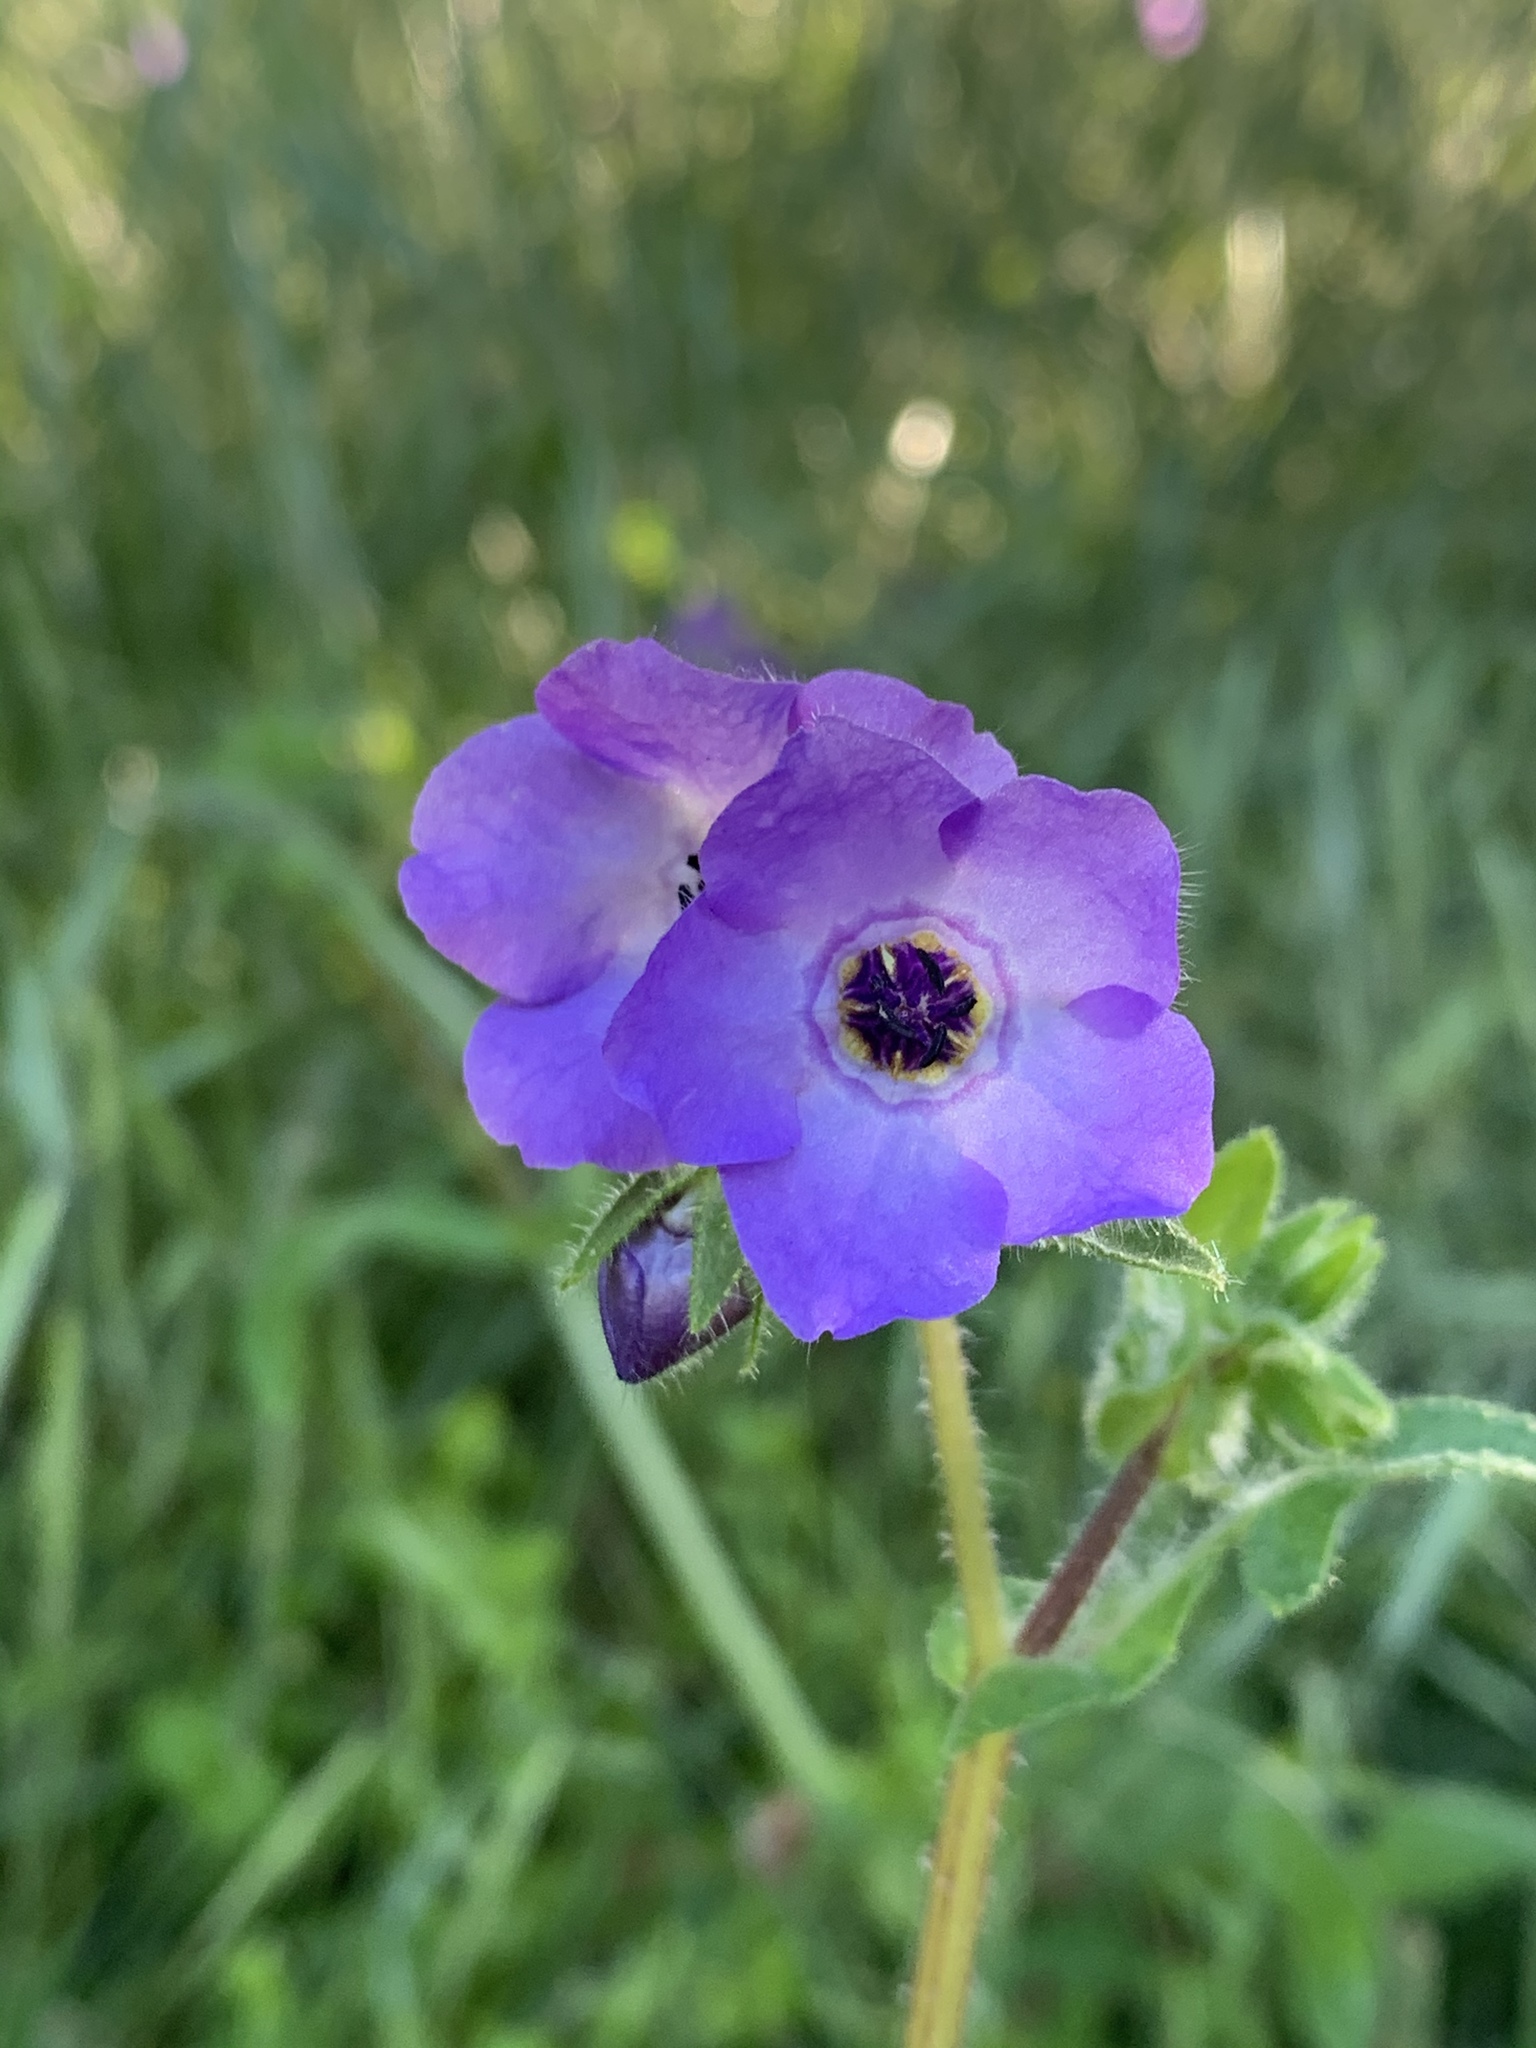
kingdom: Plantae
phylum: Tracheophyta
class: Magnoliopsida
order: Boraginales
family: Hydrophyllaceae
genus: Pholistoma
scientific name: Pholistoma auritum
